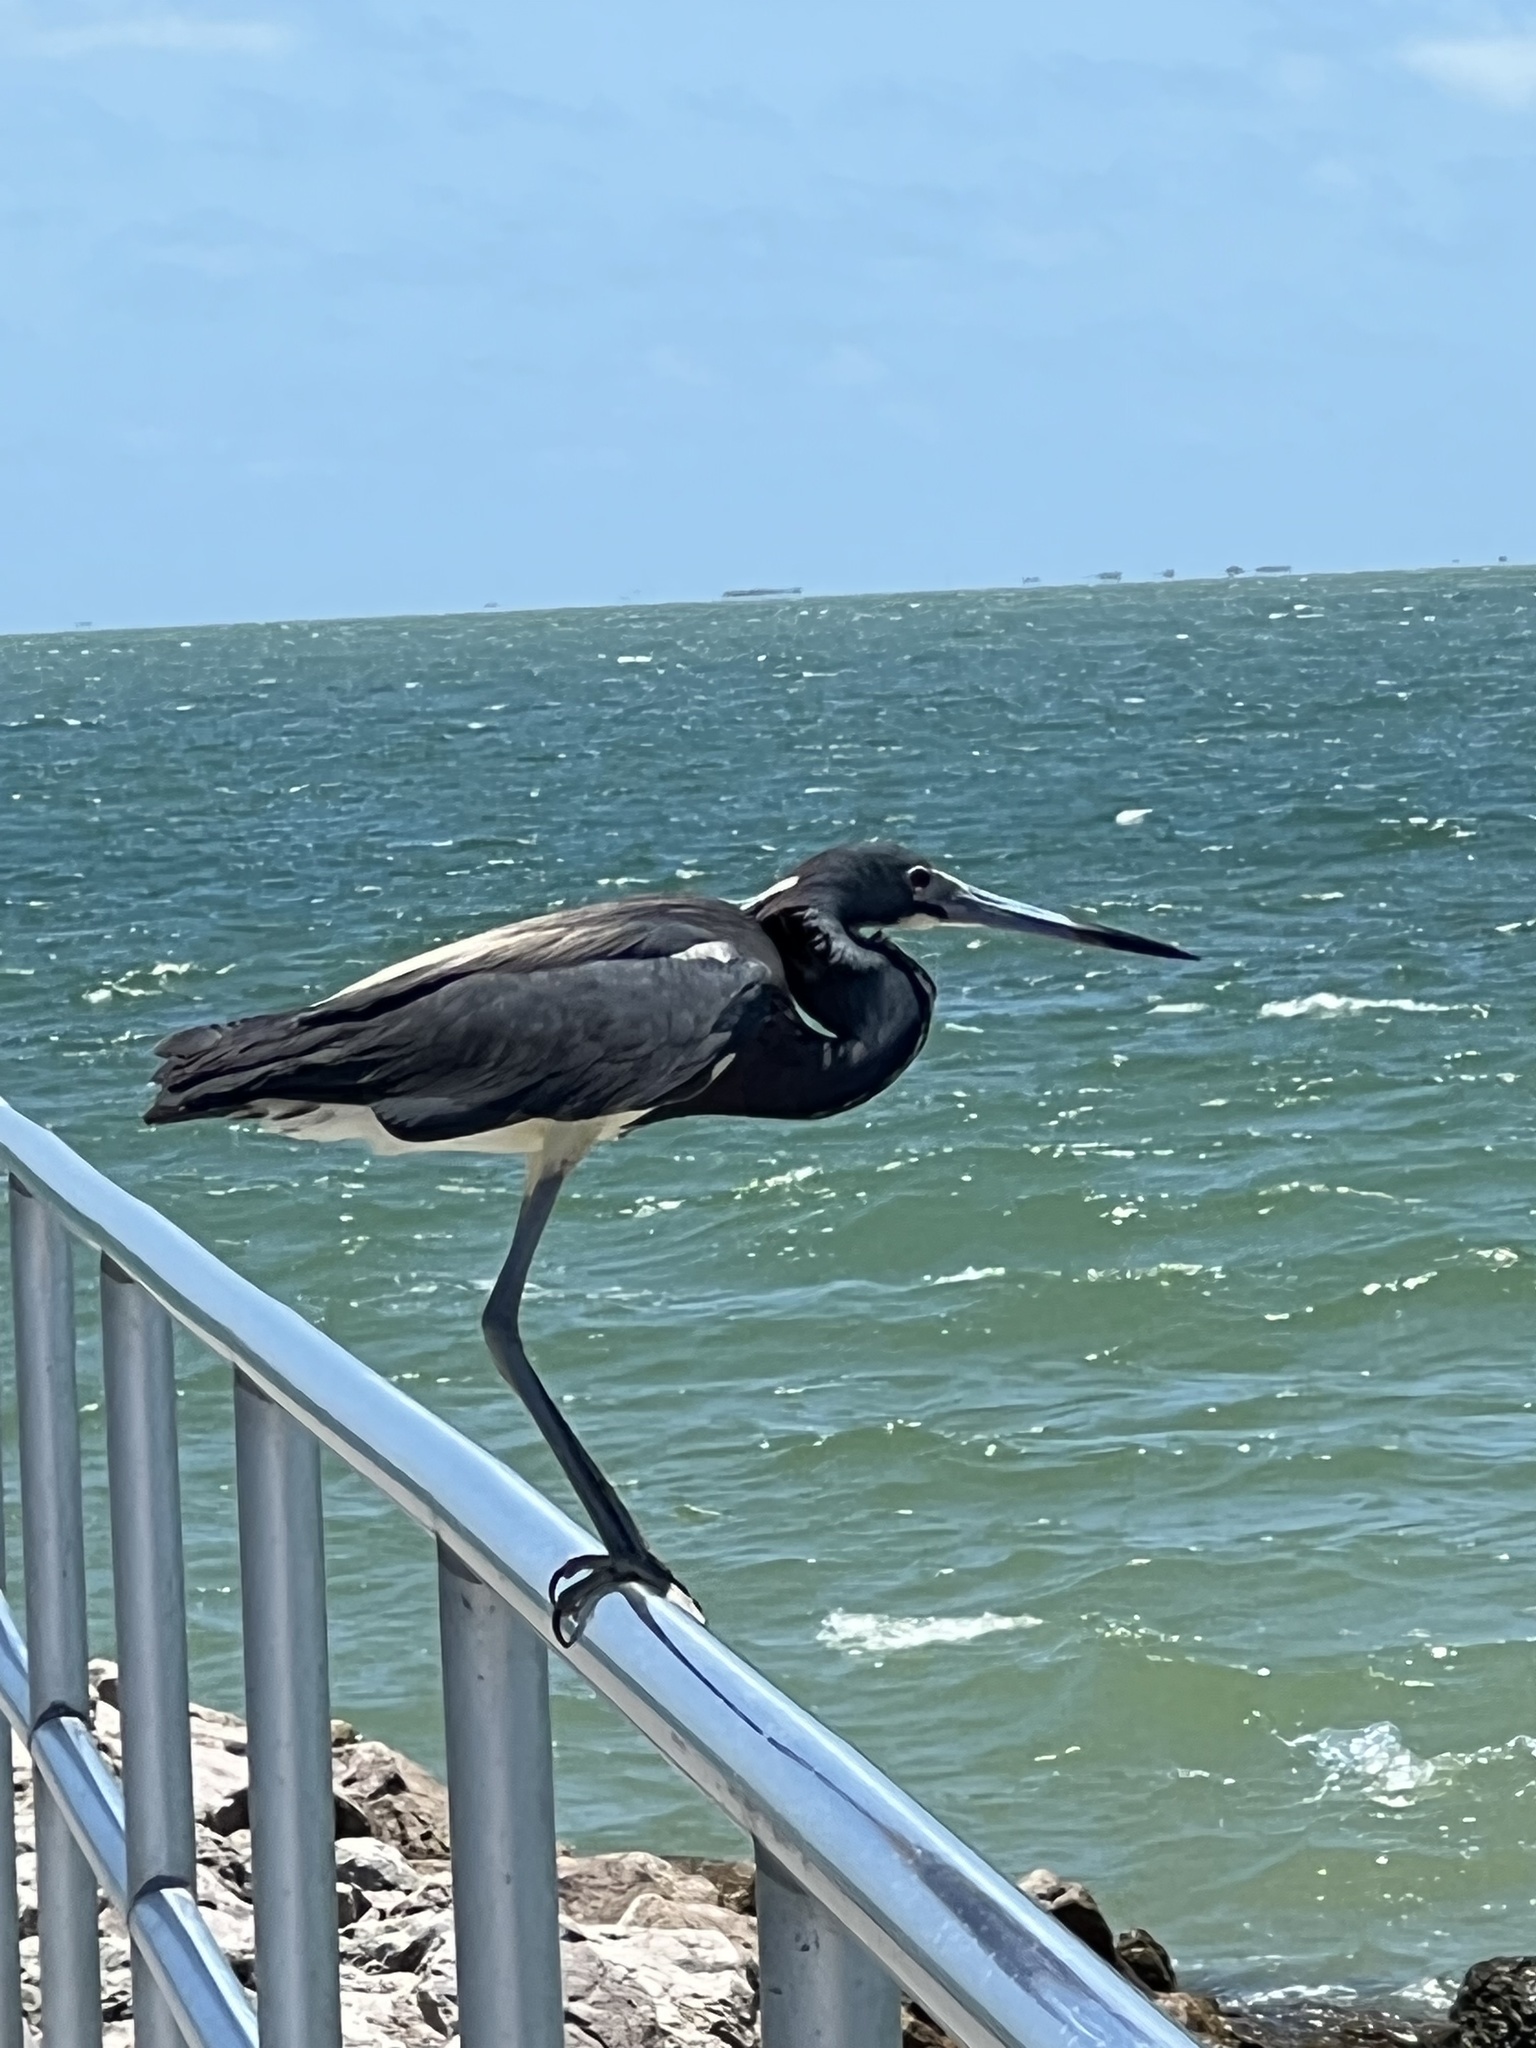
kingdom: Animalia
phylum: Chordata
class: Aves
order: Pelecaniformes
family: Ardeidae
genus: Egretta
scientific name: Egretta tricolor
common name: Tricolored heron
